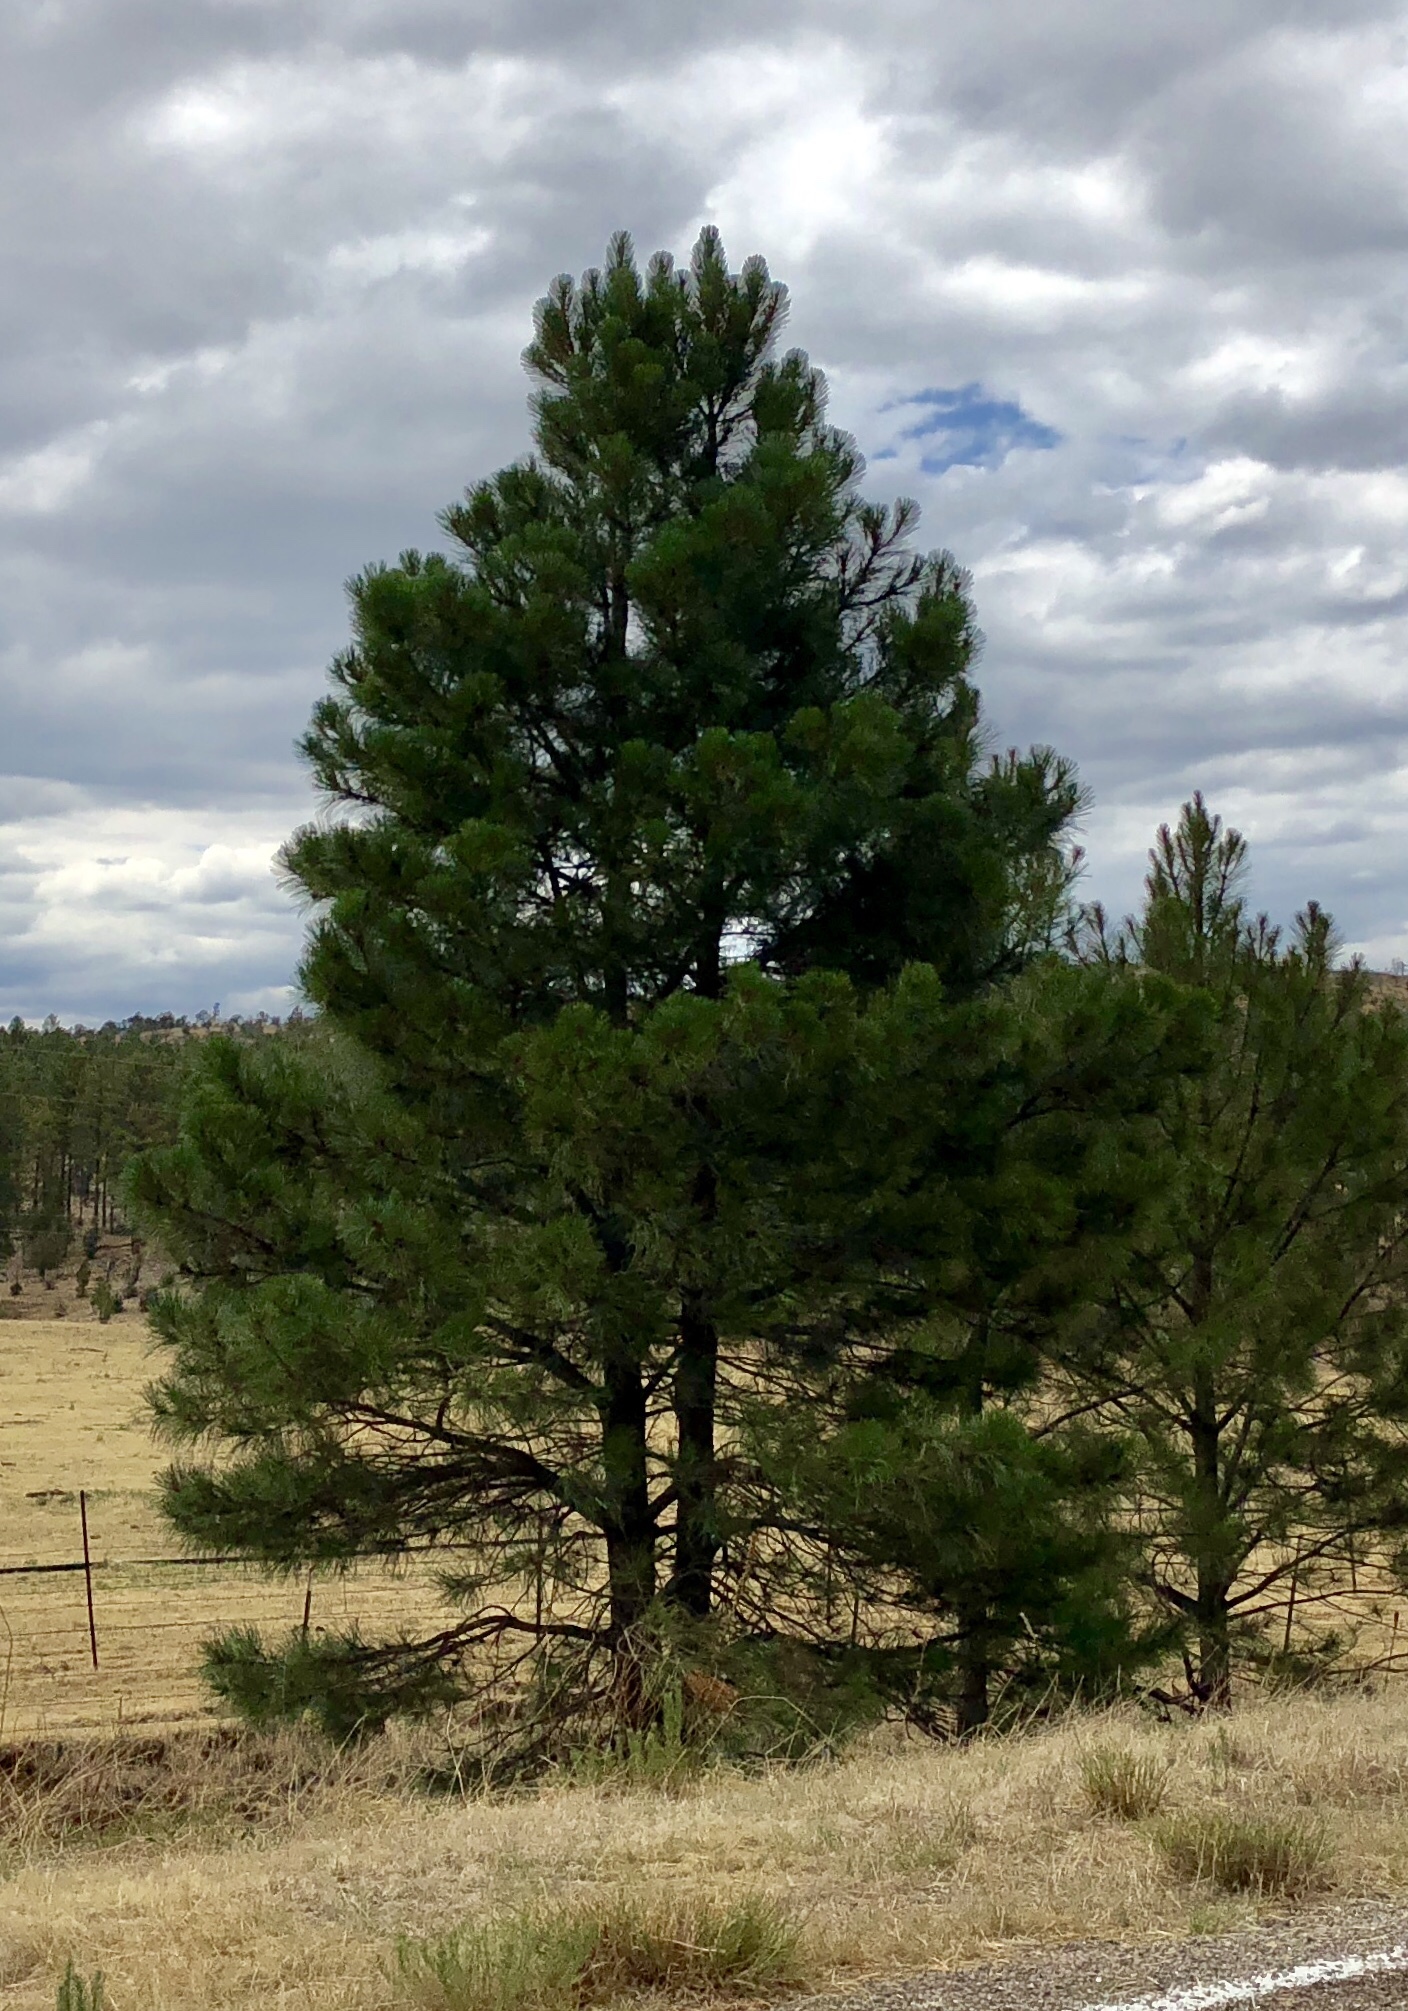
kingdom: Plantae
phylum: Tracheophyta
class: Pinopsida
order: Pinales
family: Pinaceae
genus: Pinus
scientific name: Pinus ponderosa
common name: Western yellow-pine
